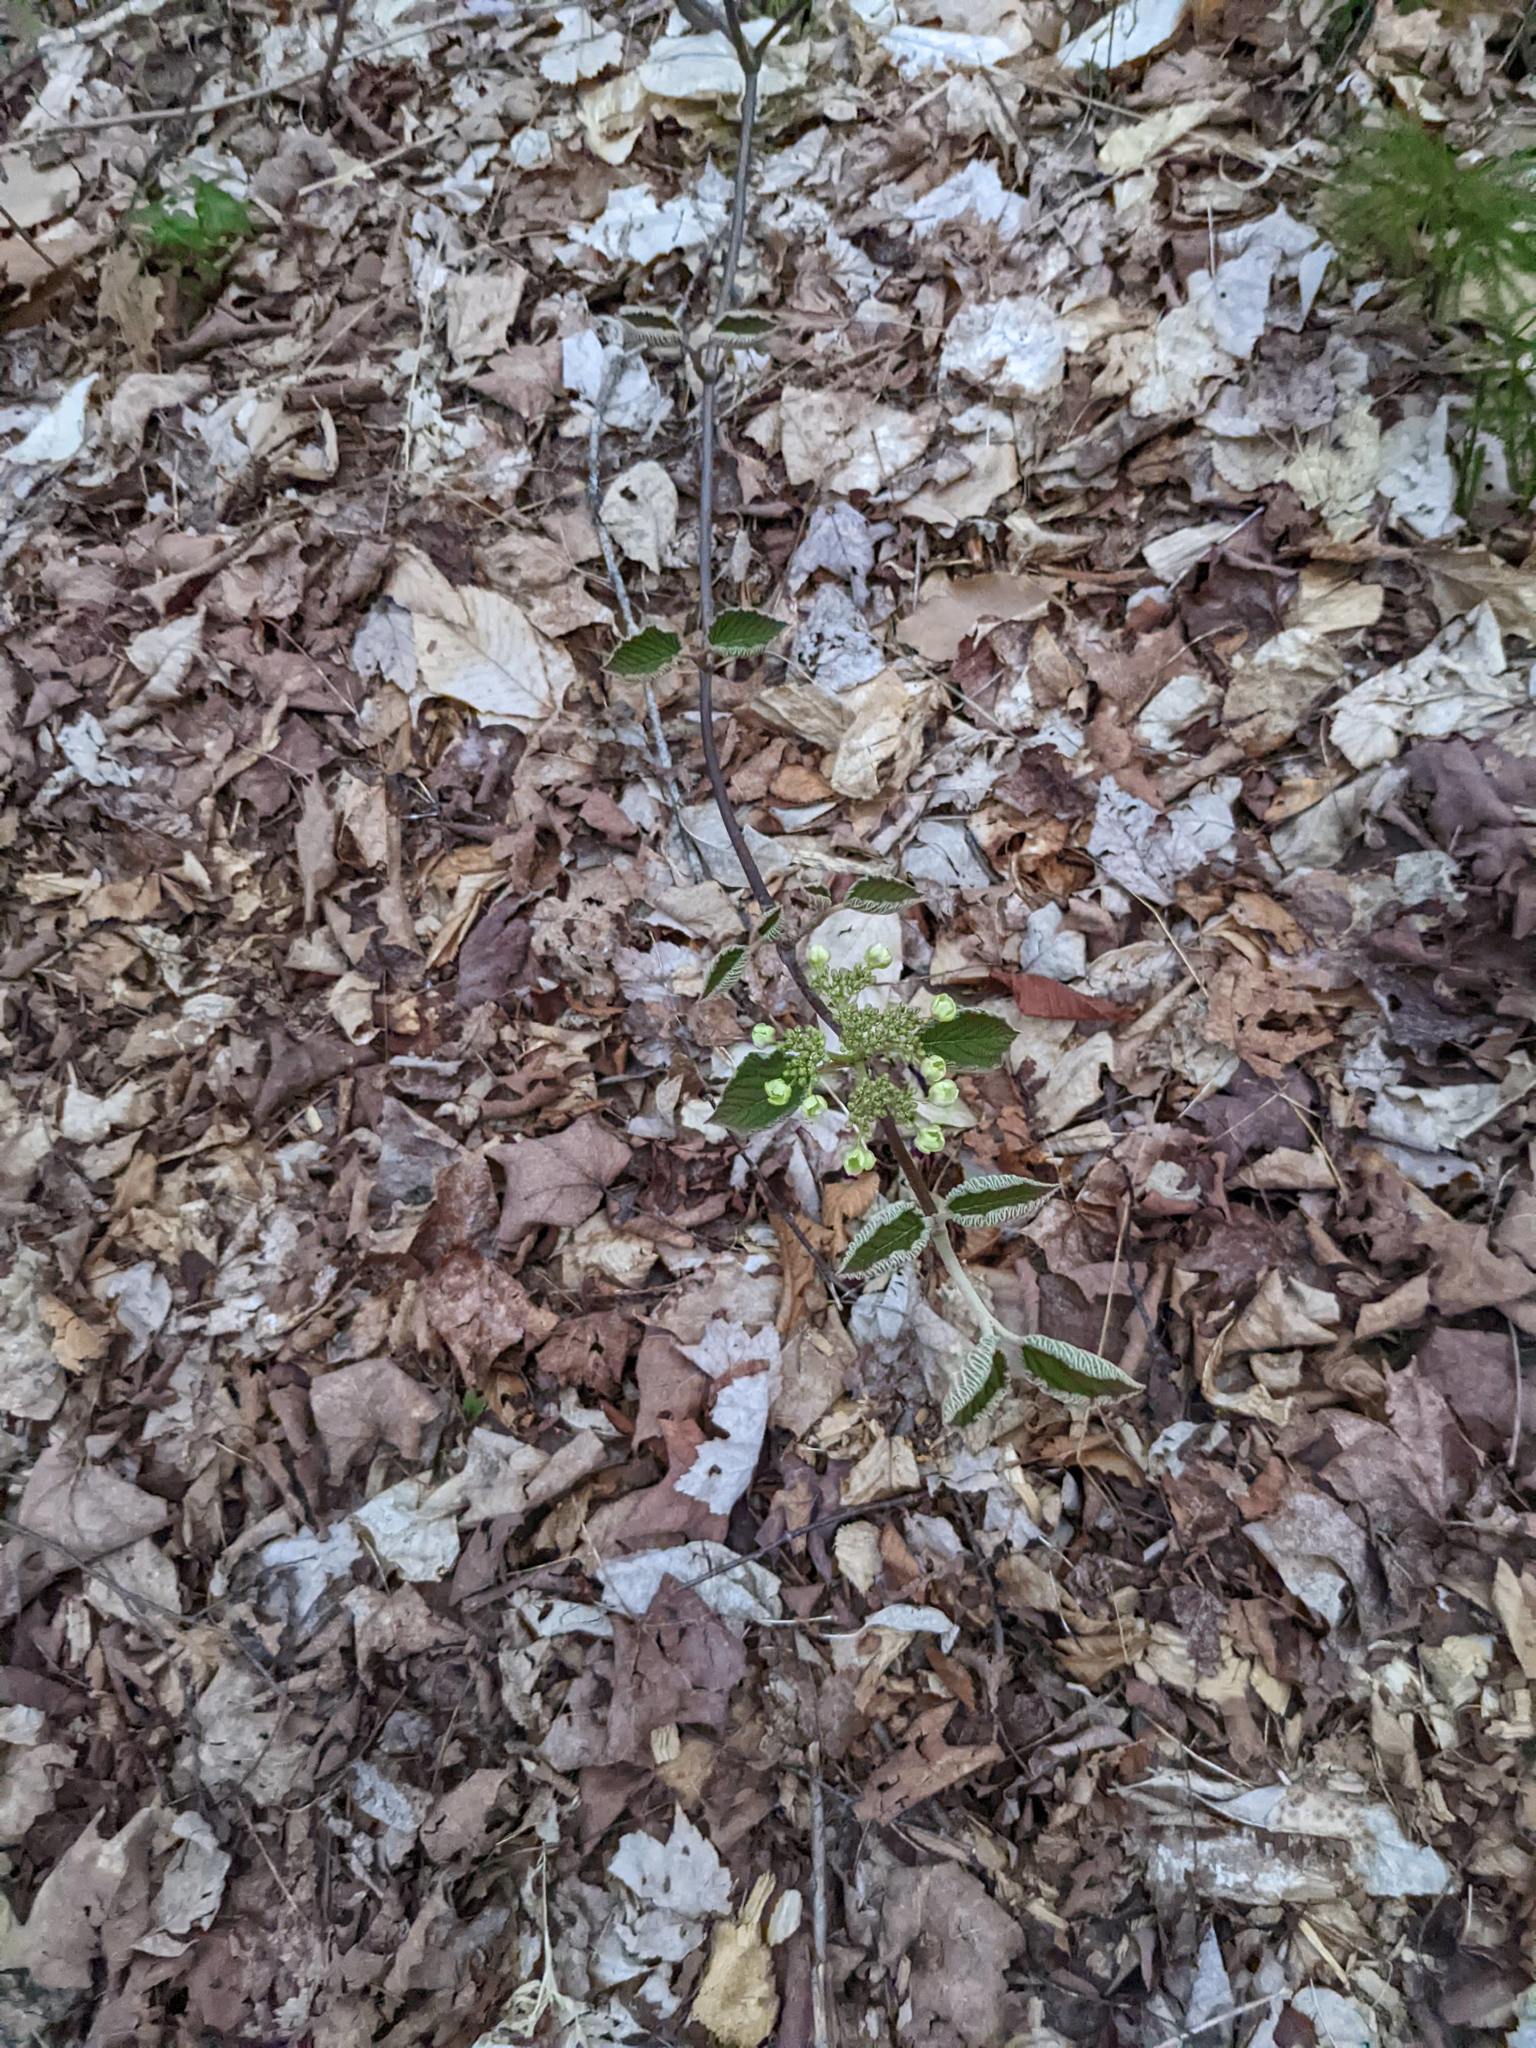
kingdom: Plantae
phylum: Tracheophyta
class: Magnoliopsida
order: Dipsacales
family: Viburnaceae
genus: Viburnum
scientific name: Viburnum lantanoides
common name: Hobblebush
